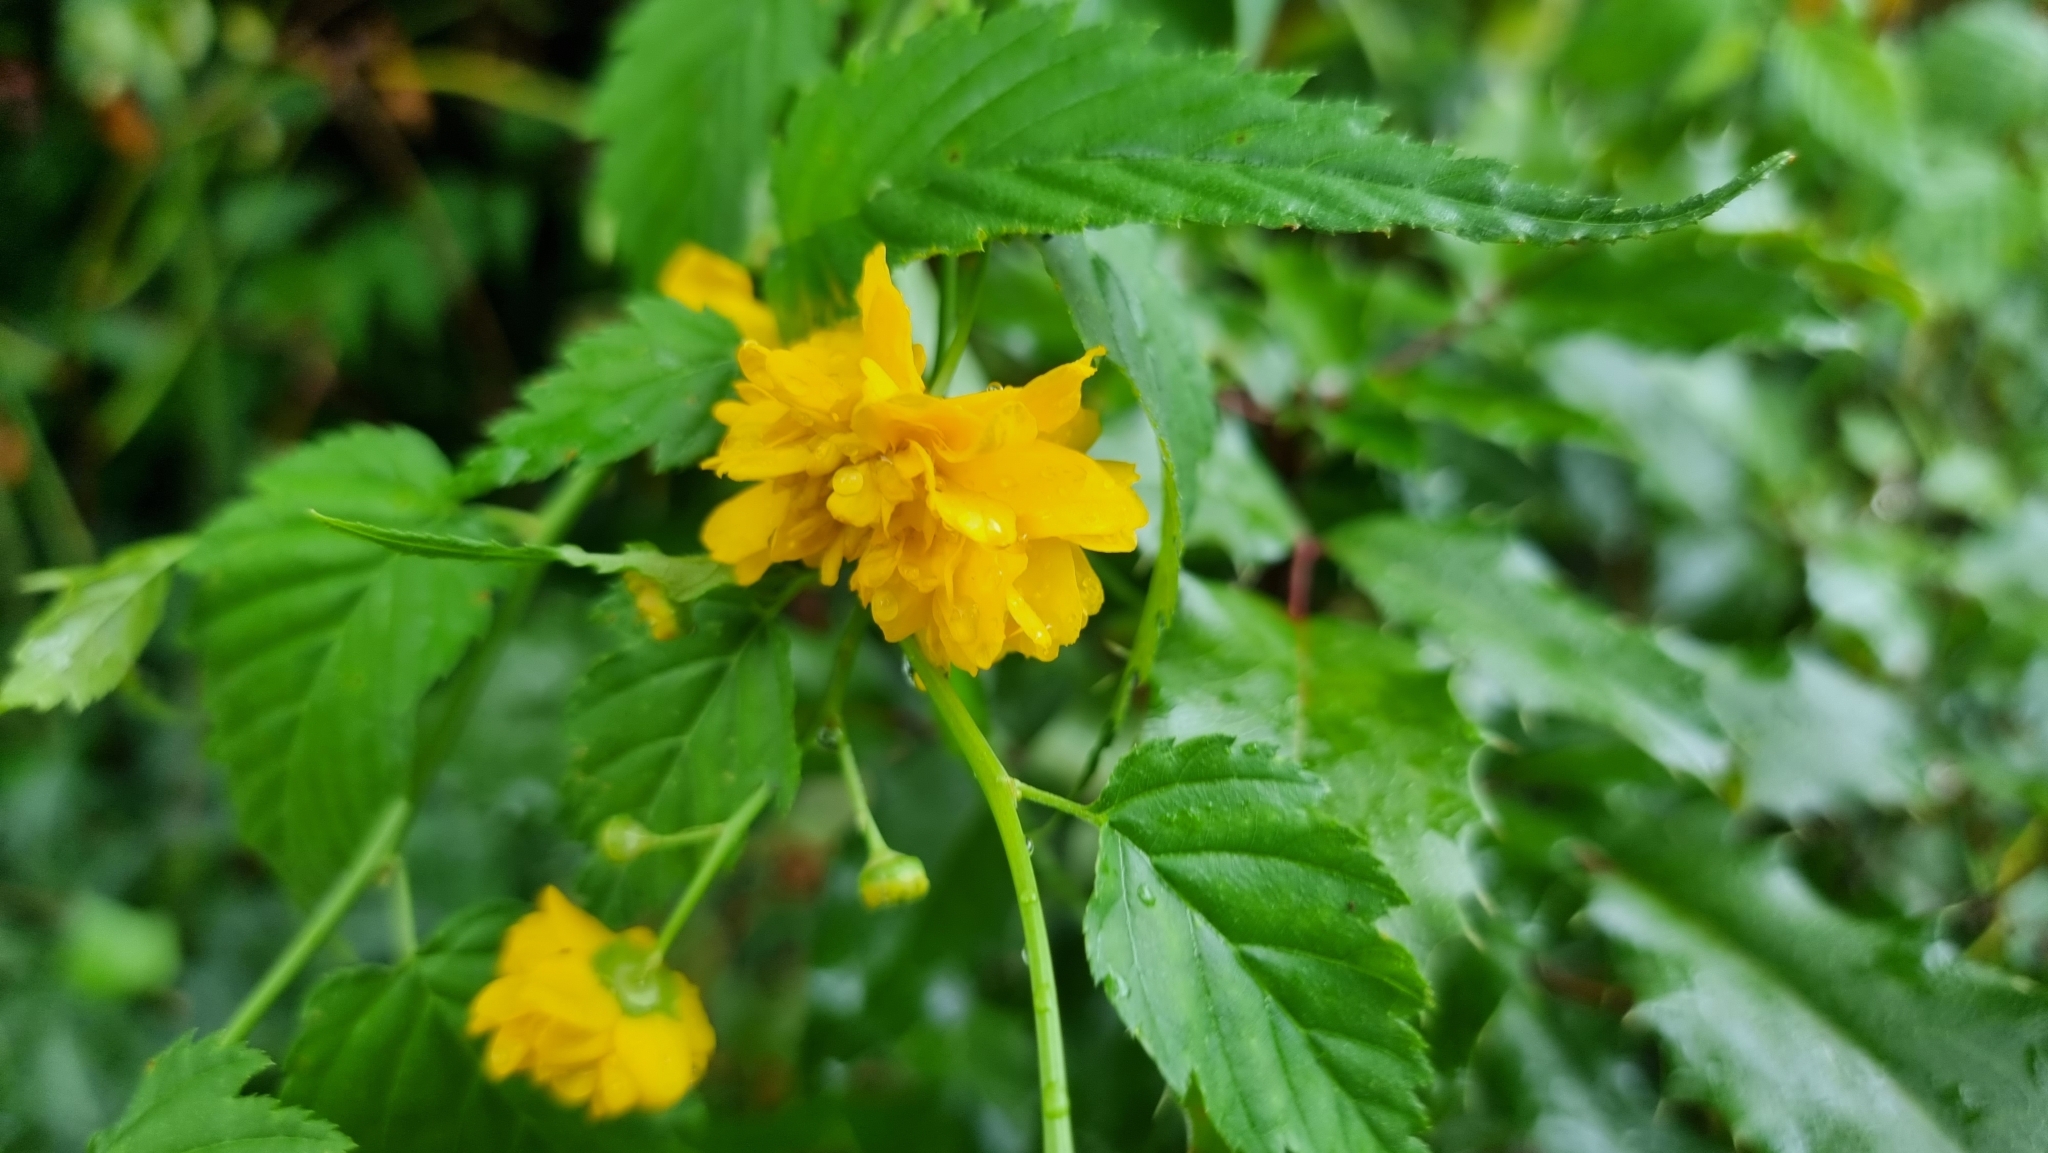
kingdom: Plantae
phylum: Tracheophyta
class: Magnoliopsida
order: Rosales
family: Rosaceae
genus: Kerria
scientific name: Kerria japonica
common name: Japanese kerria
